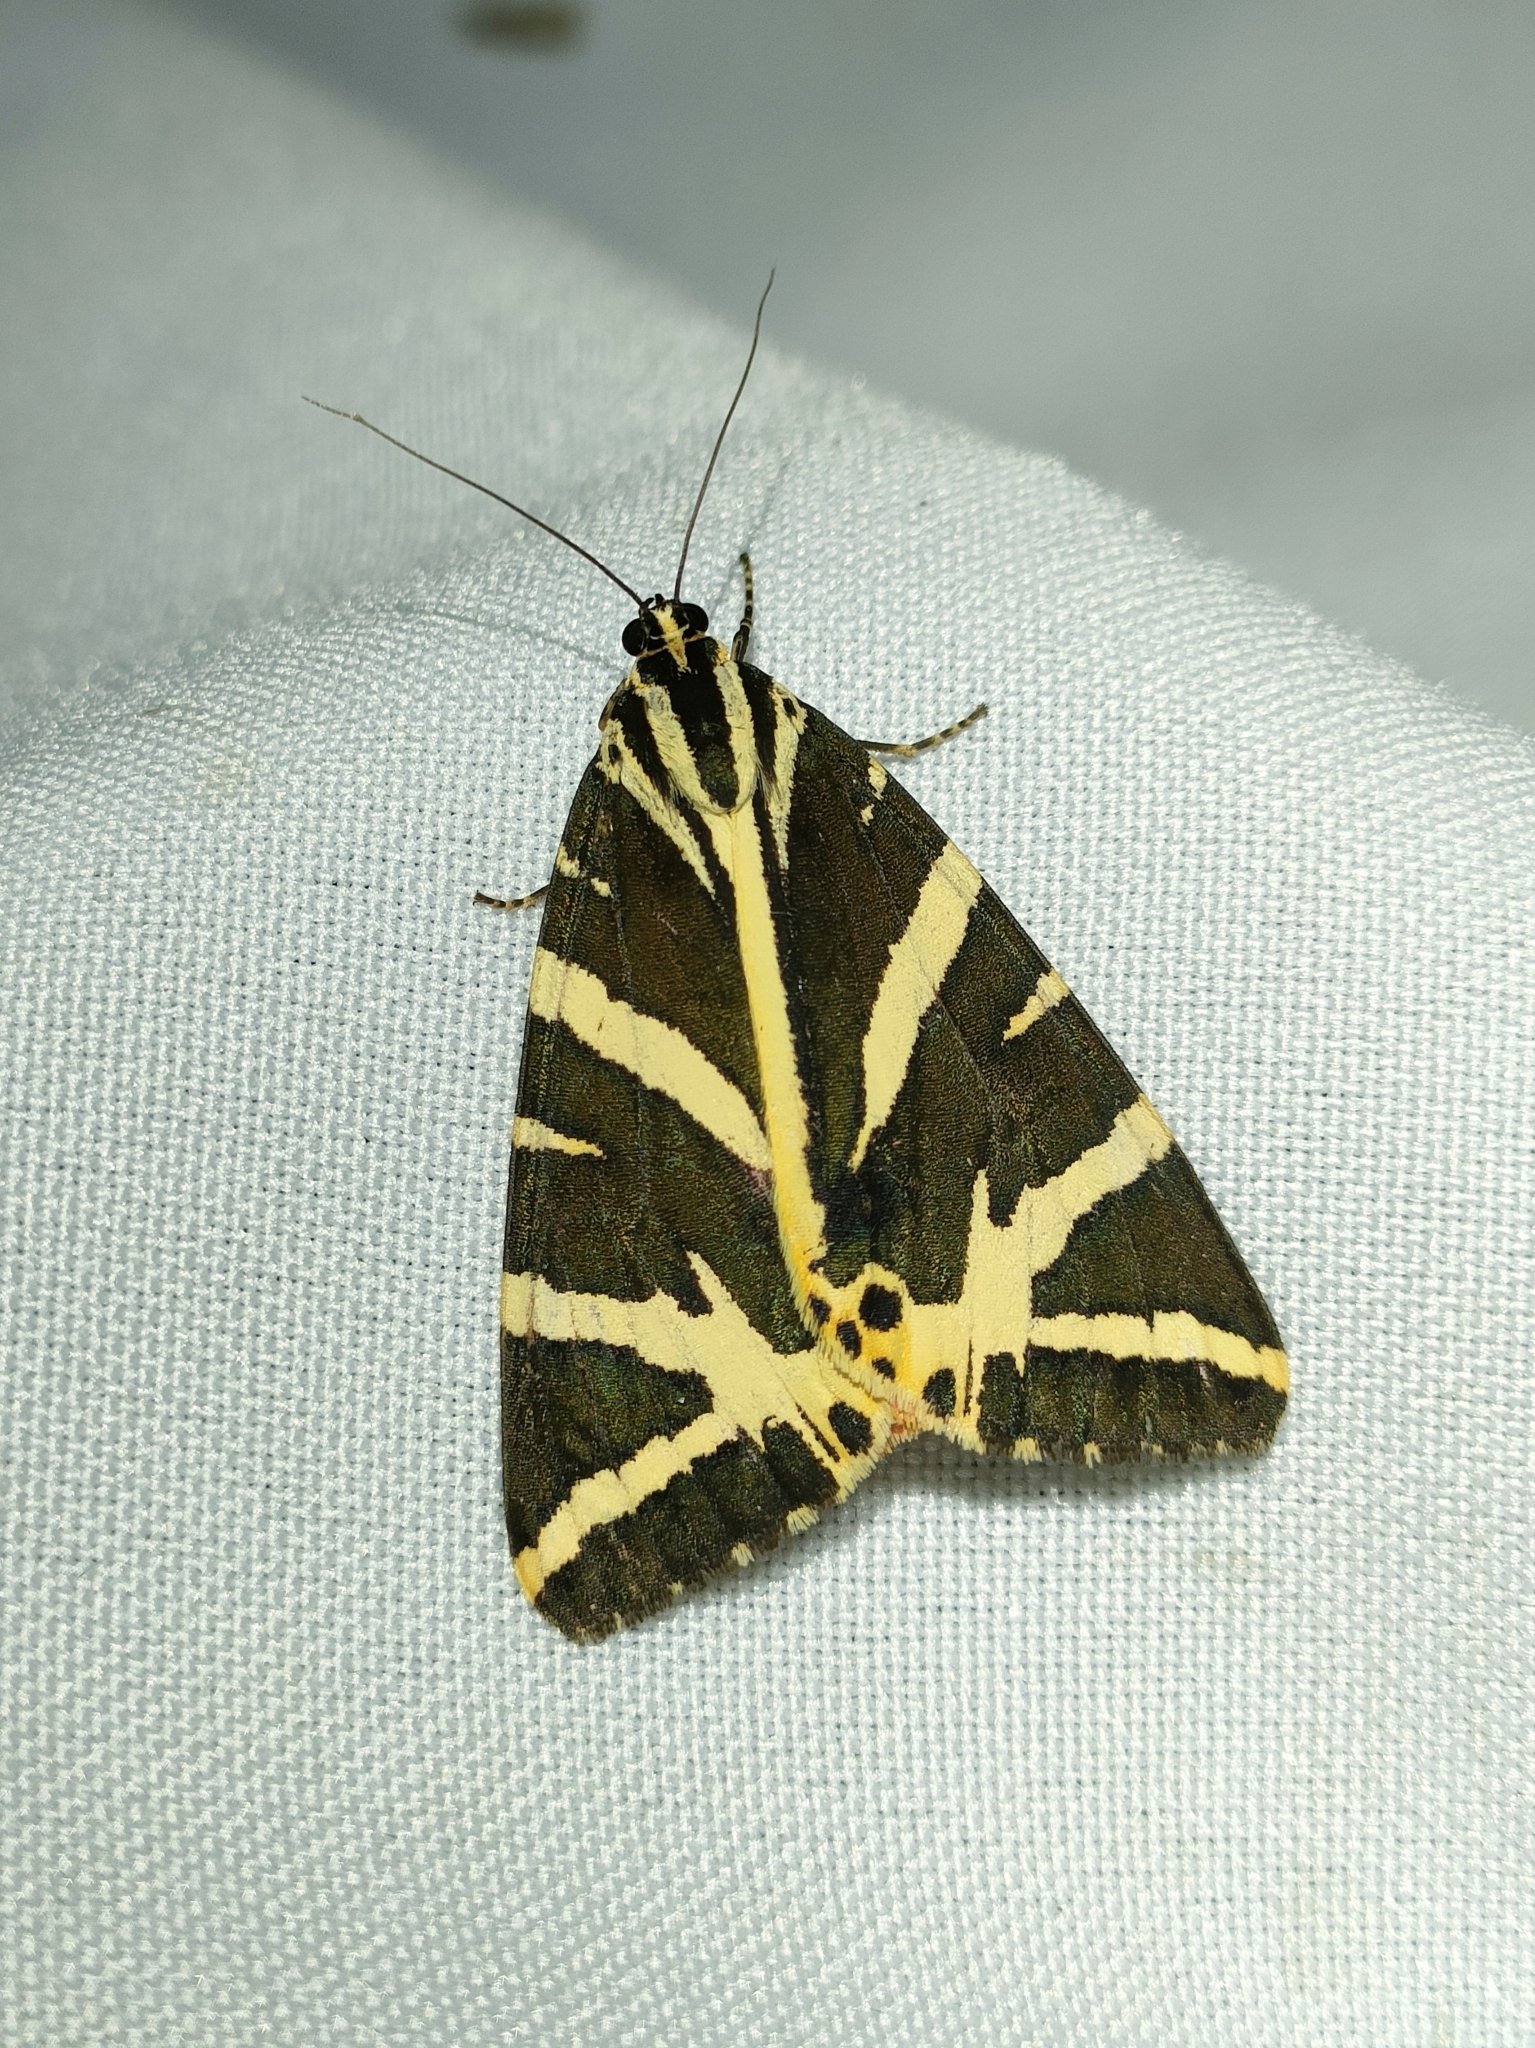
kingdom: Animalia
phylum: Arthropoda
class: Insecta
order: Lepidoptera
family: Erebidae
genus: Euplagia
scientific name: Euplagia quadripunctaria
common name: Jersey tiger
